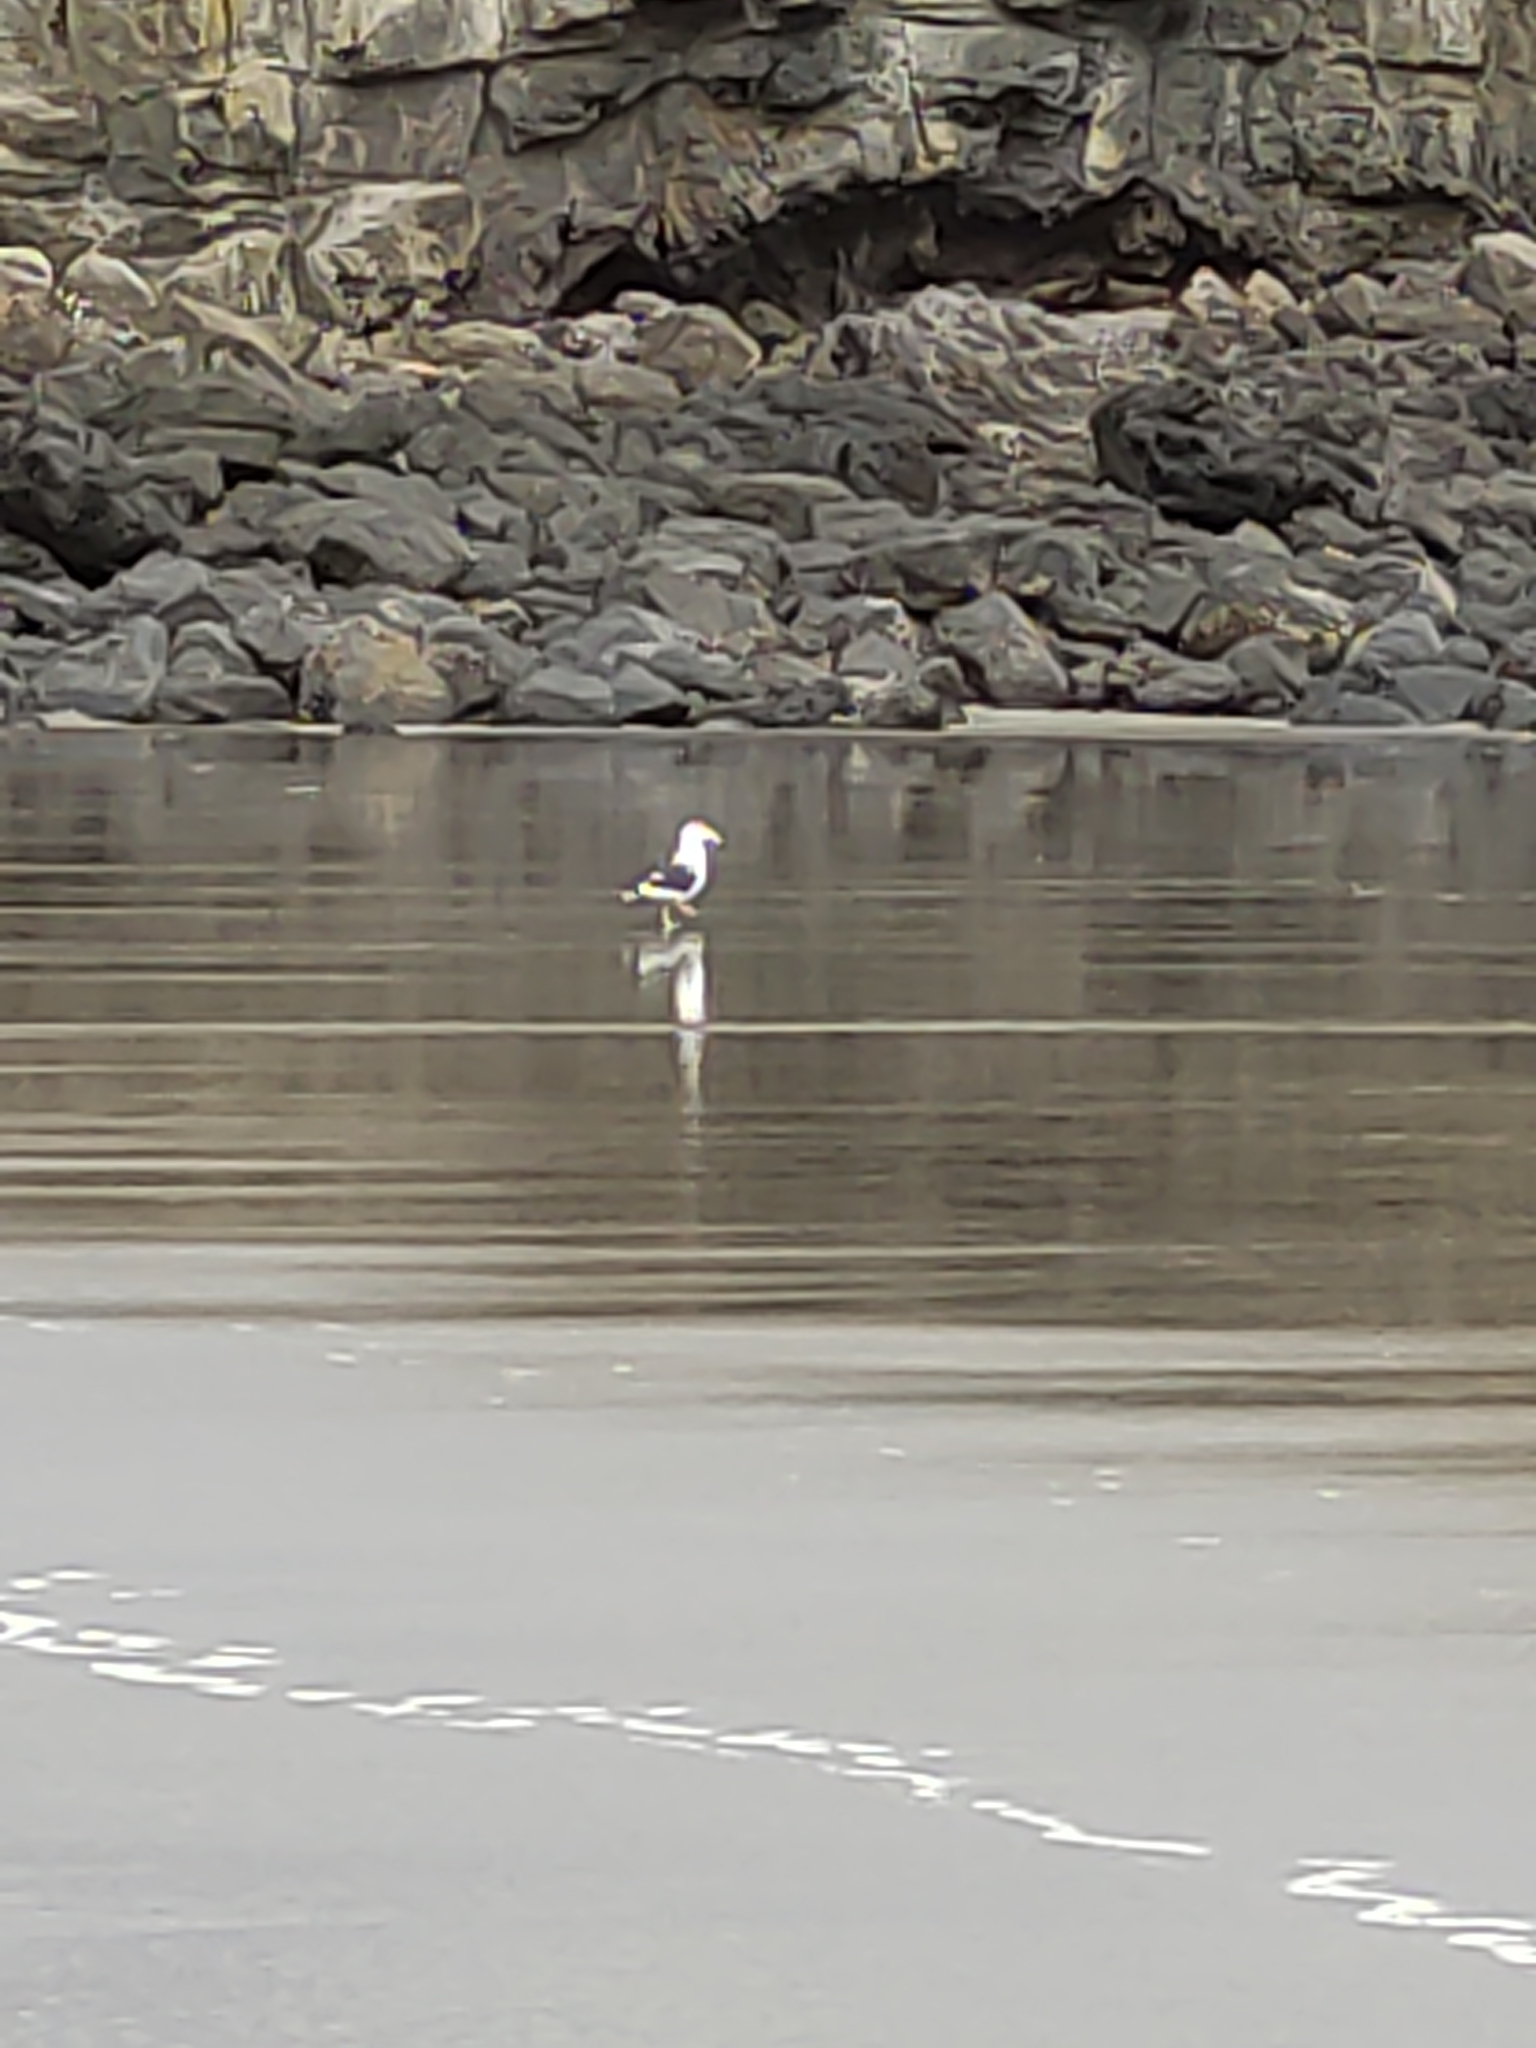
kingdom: Animalia
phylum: Chordata
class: Aves
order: Charadriiformes
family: Laridae
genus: Larus
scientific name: Larus dominicanus
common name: Kelp gull
